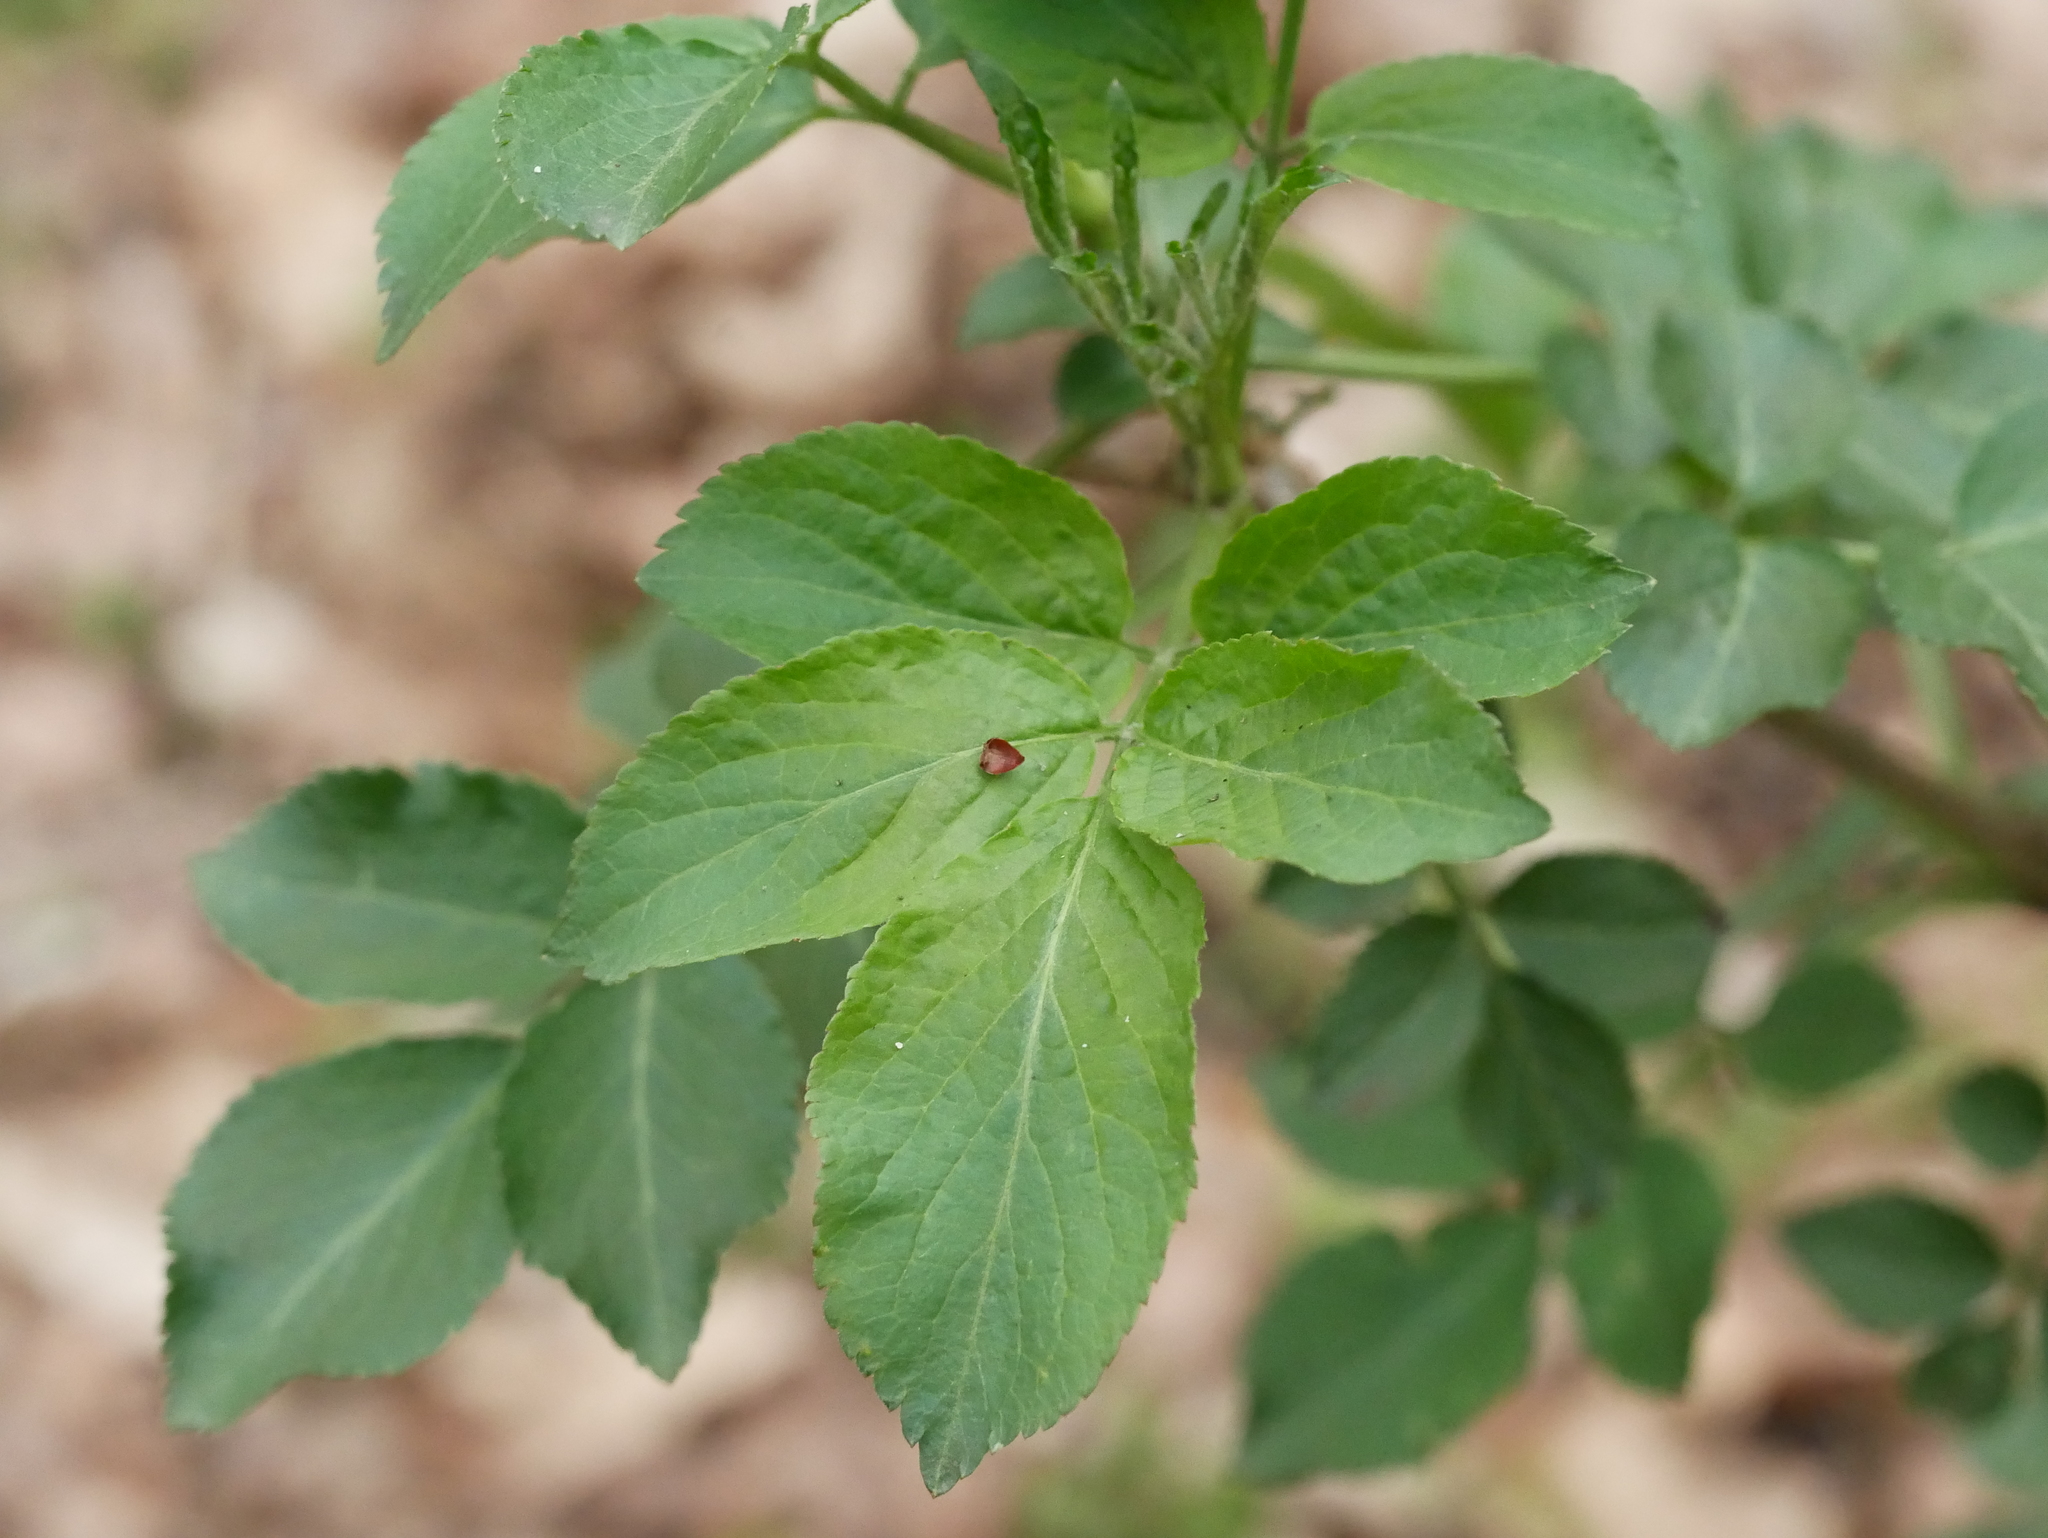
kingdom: Plantae
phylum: Tracheophyta
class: Magnoliopsida
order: Dipsacales
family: Viburnaceae
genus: Sambucus
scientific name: Sambucus nigra
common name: Elder
